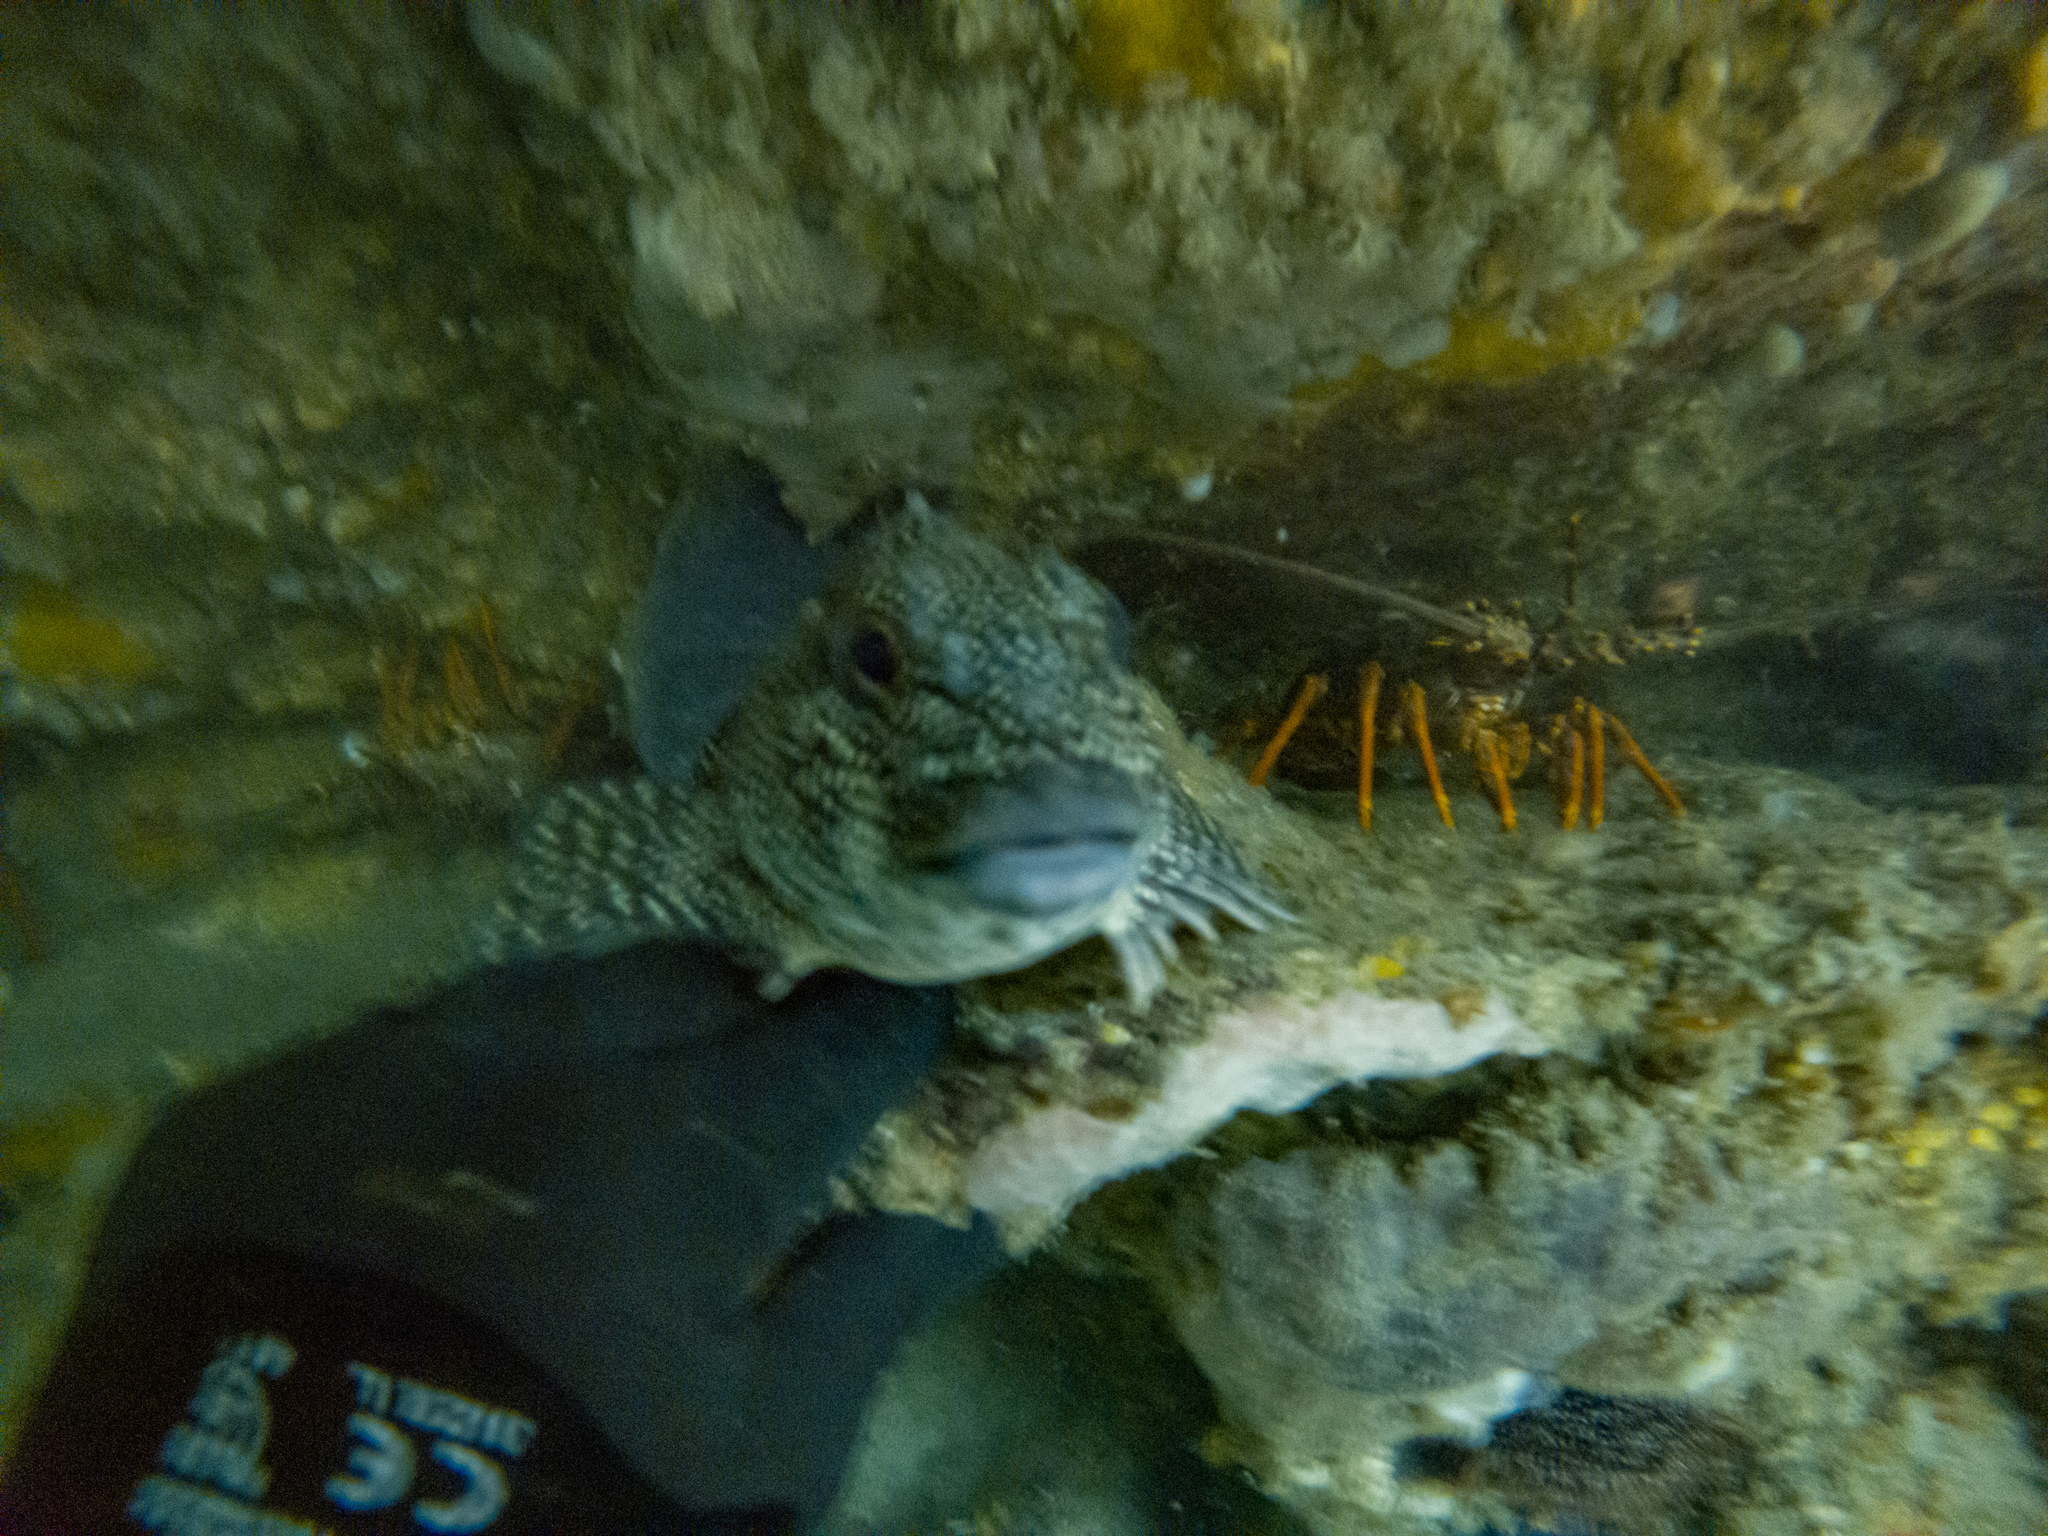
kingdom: Animalia
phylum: Chordata
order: Perciformes
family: Chironemidae
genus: Chironemus
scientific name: Chironemus marmoratus
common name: Kelpfish
